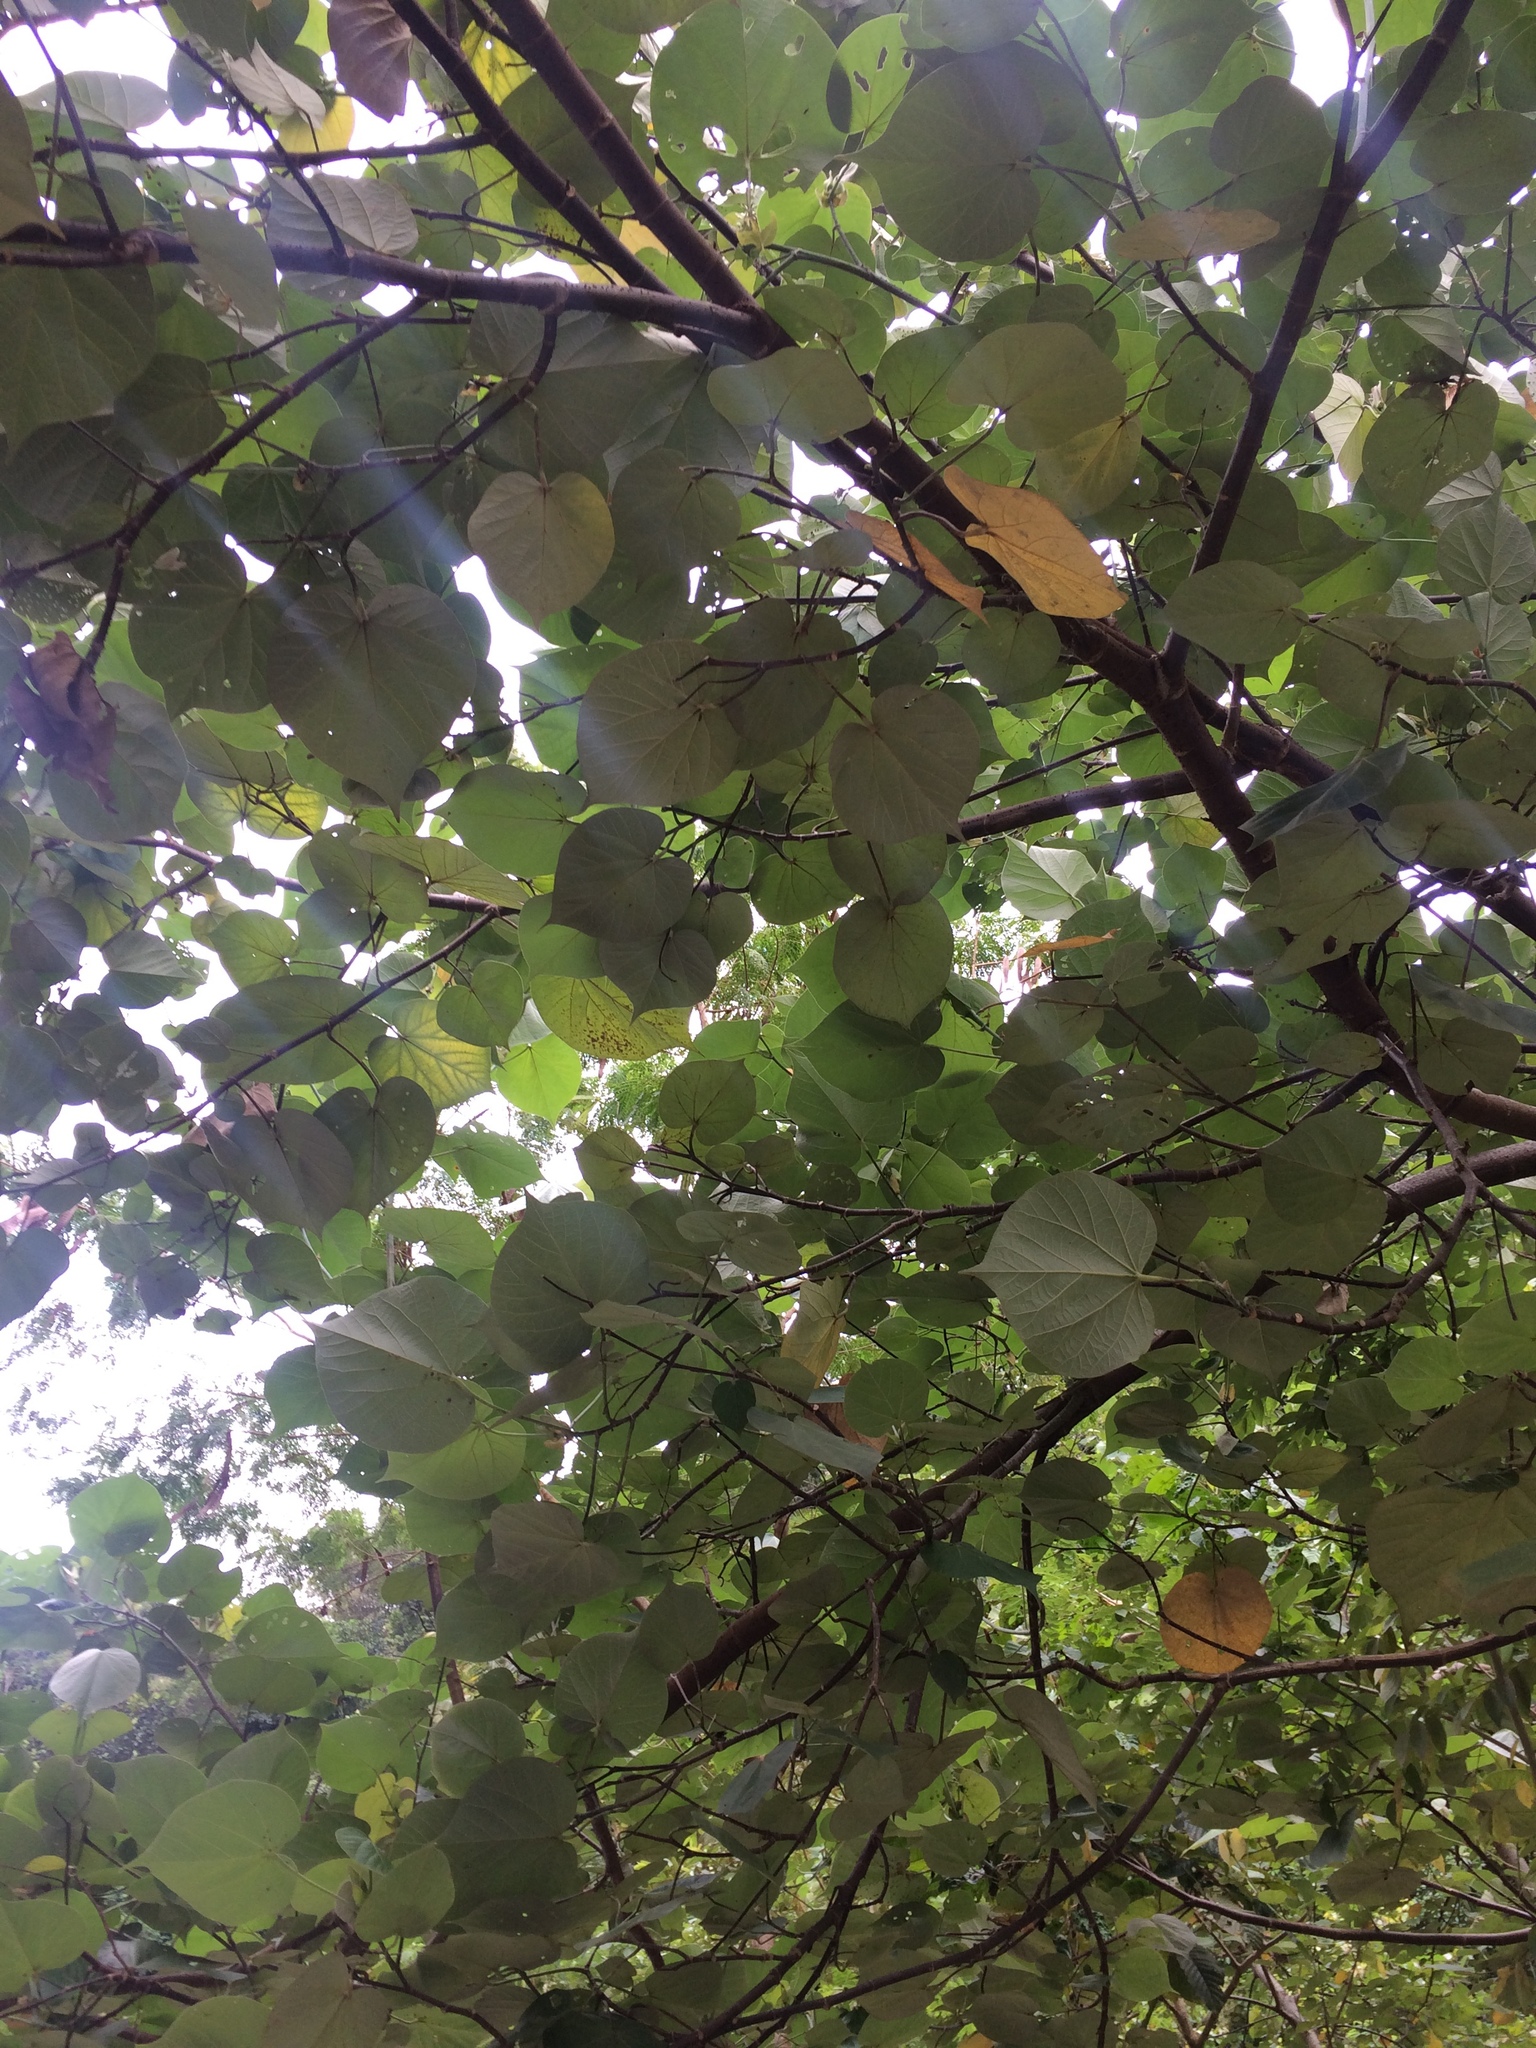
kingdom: Plantae
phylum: Tracheophyta
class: Magnoliopsida
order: Malvales
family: Malvaceae
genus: Talipariti
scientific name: Talipariti tiliaceum
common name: Sea hibiscus
